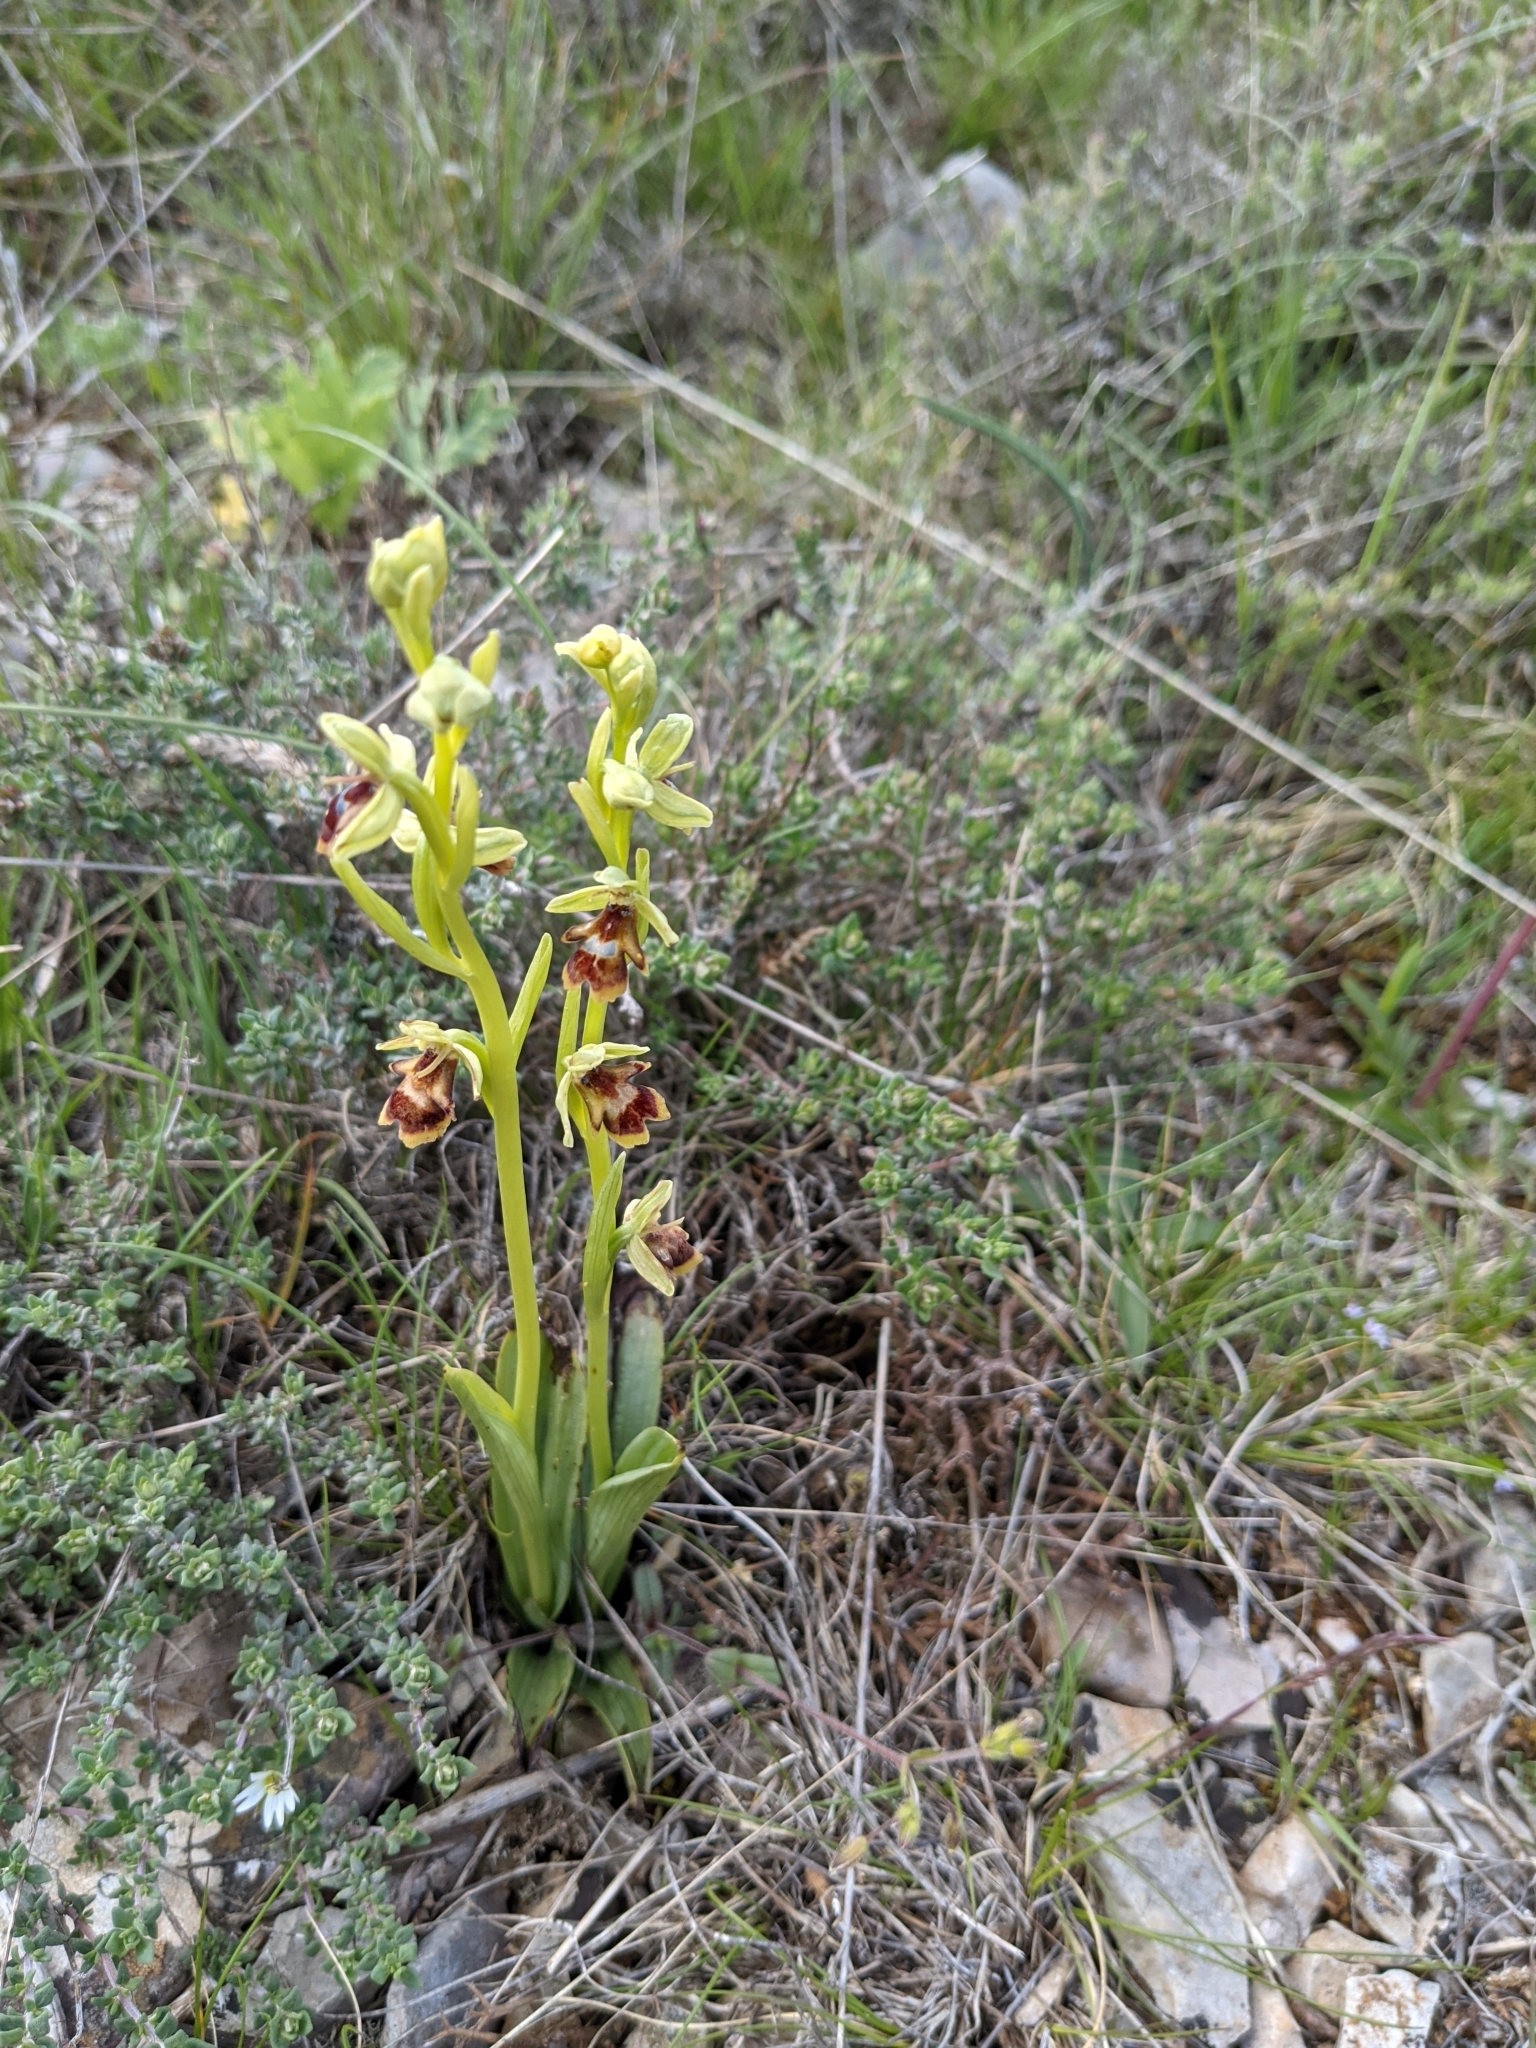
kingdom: Plantae
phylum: Tracheophyta
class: Liliopsida
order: Asparagales
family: Orchidaceae
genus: Ophrys
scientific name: Ophrys insectifera
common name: Fly orchid
